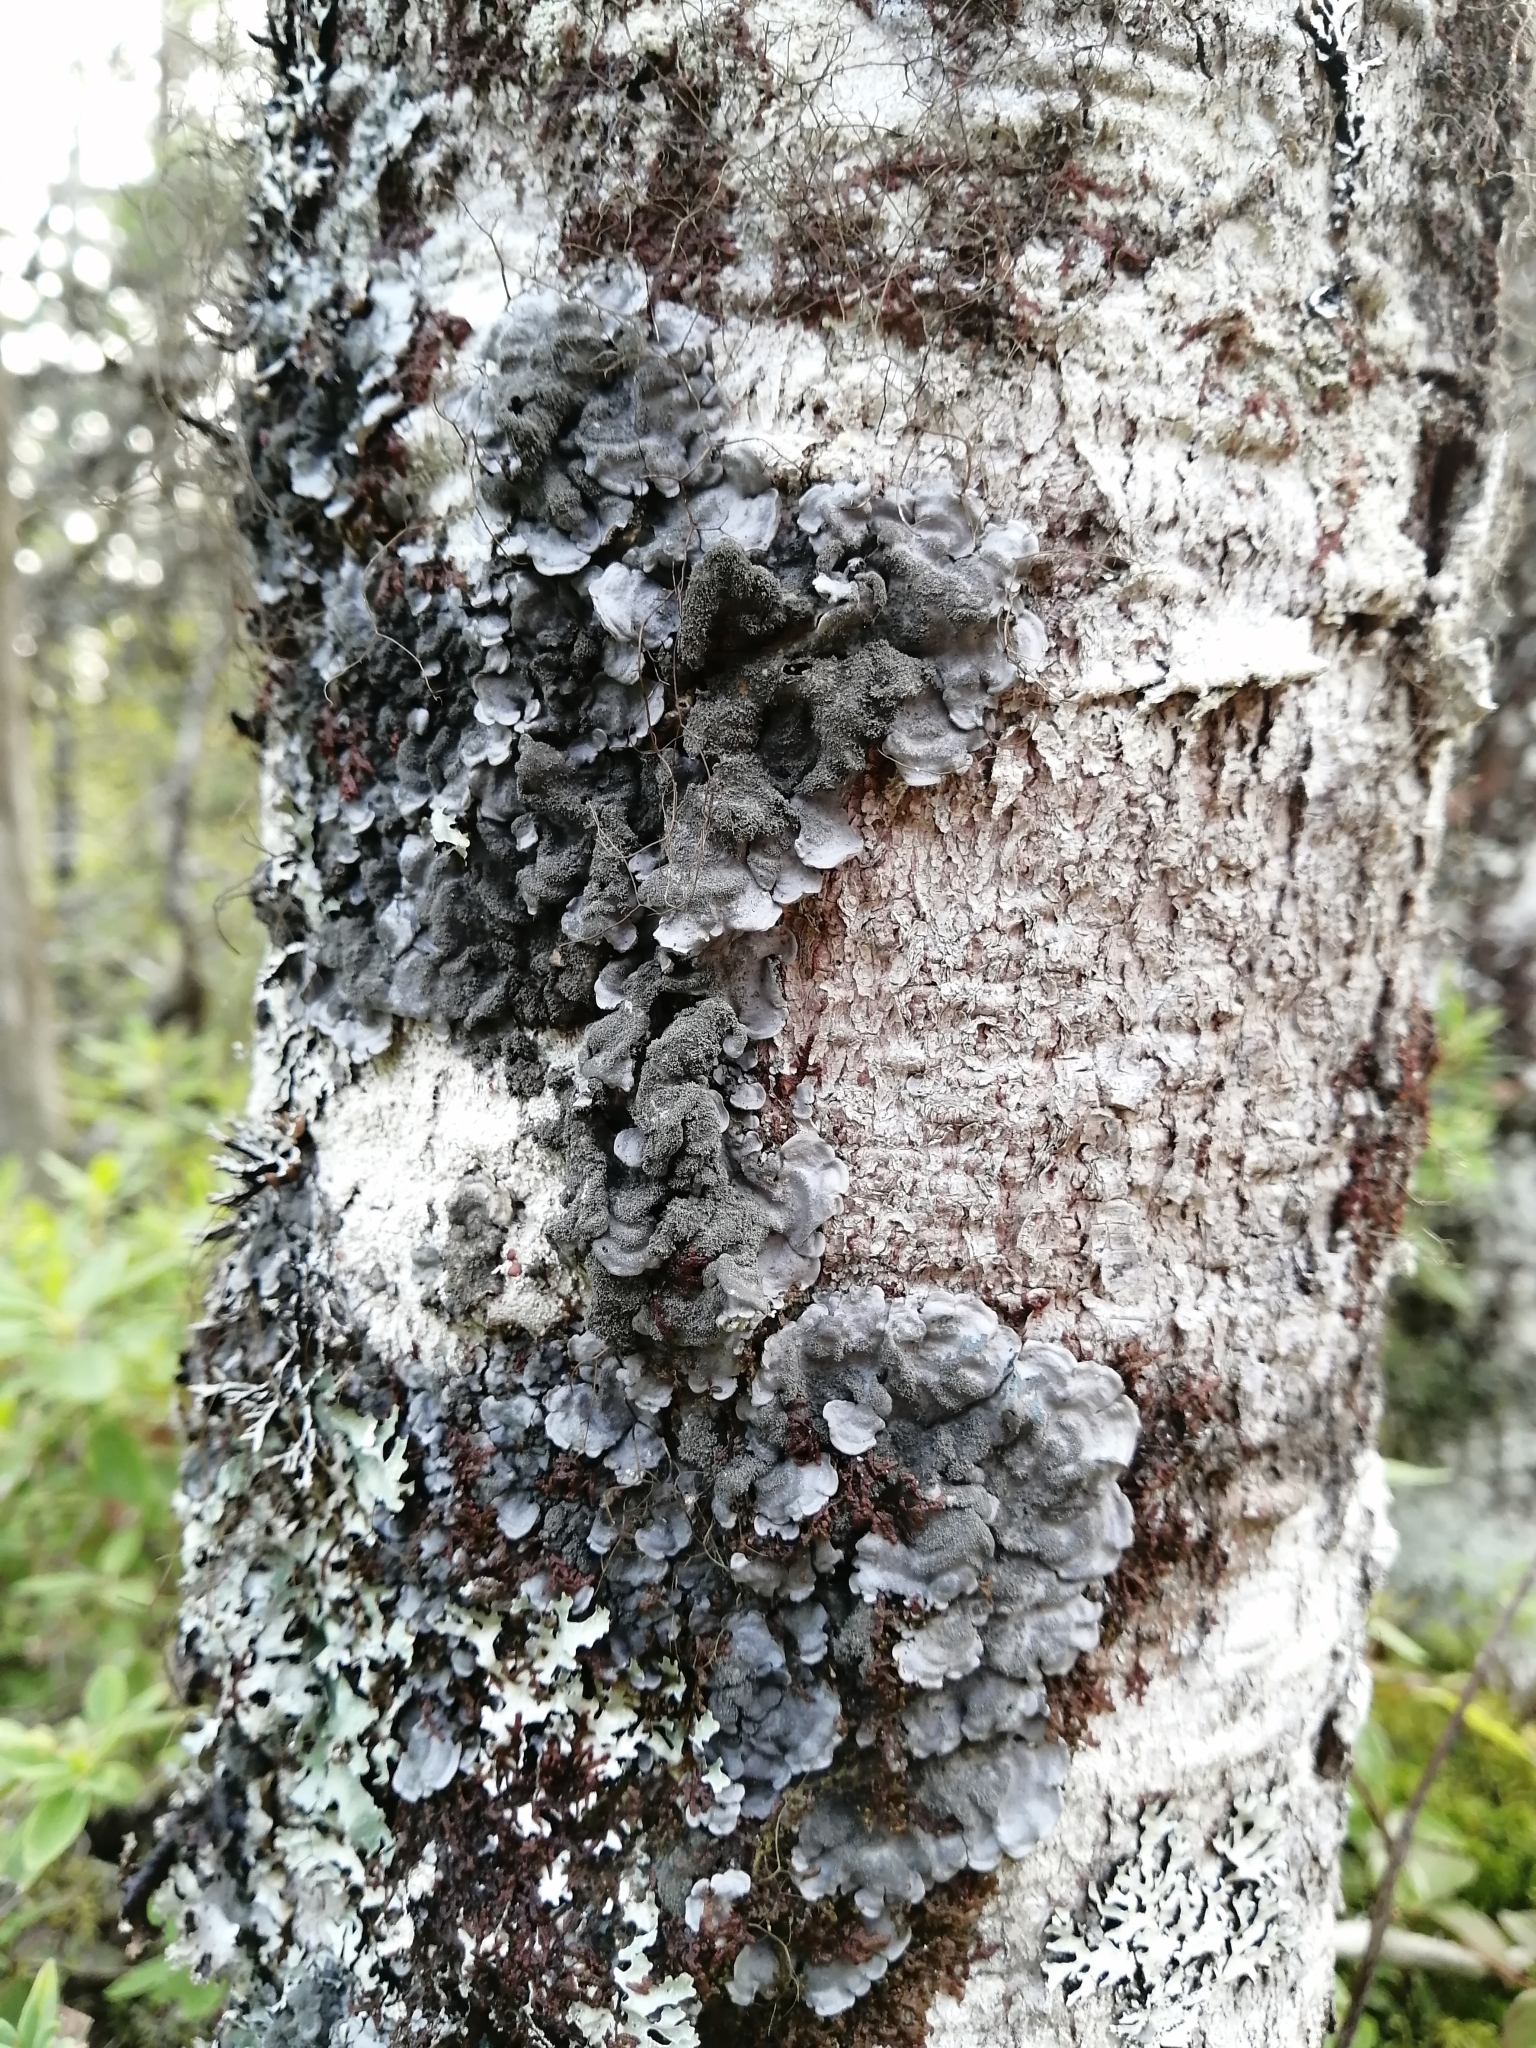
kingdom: Fungi
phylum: Ascomycota
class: Lecanoromycetes
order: Peltigerales
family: Coccocarpiaceae
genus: Coccocarpia
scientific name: Coccocarpia palmicola
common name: Salted shell lichen
